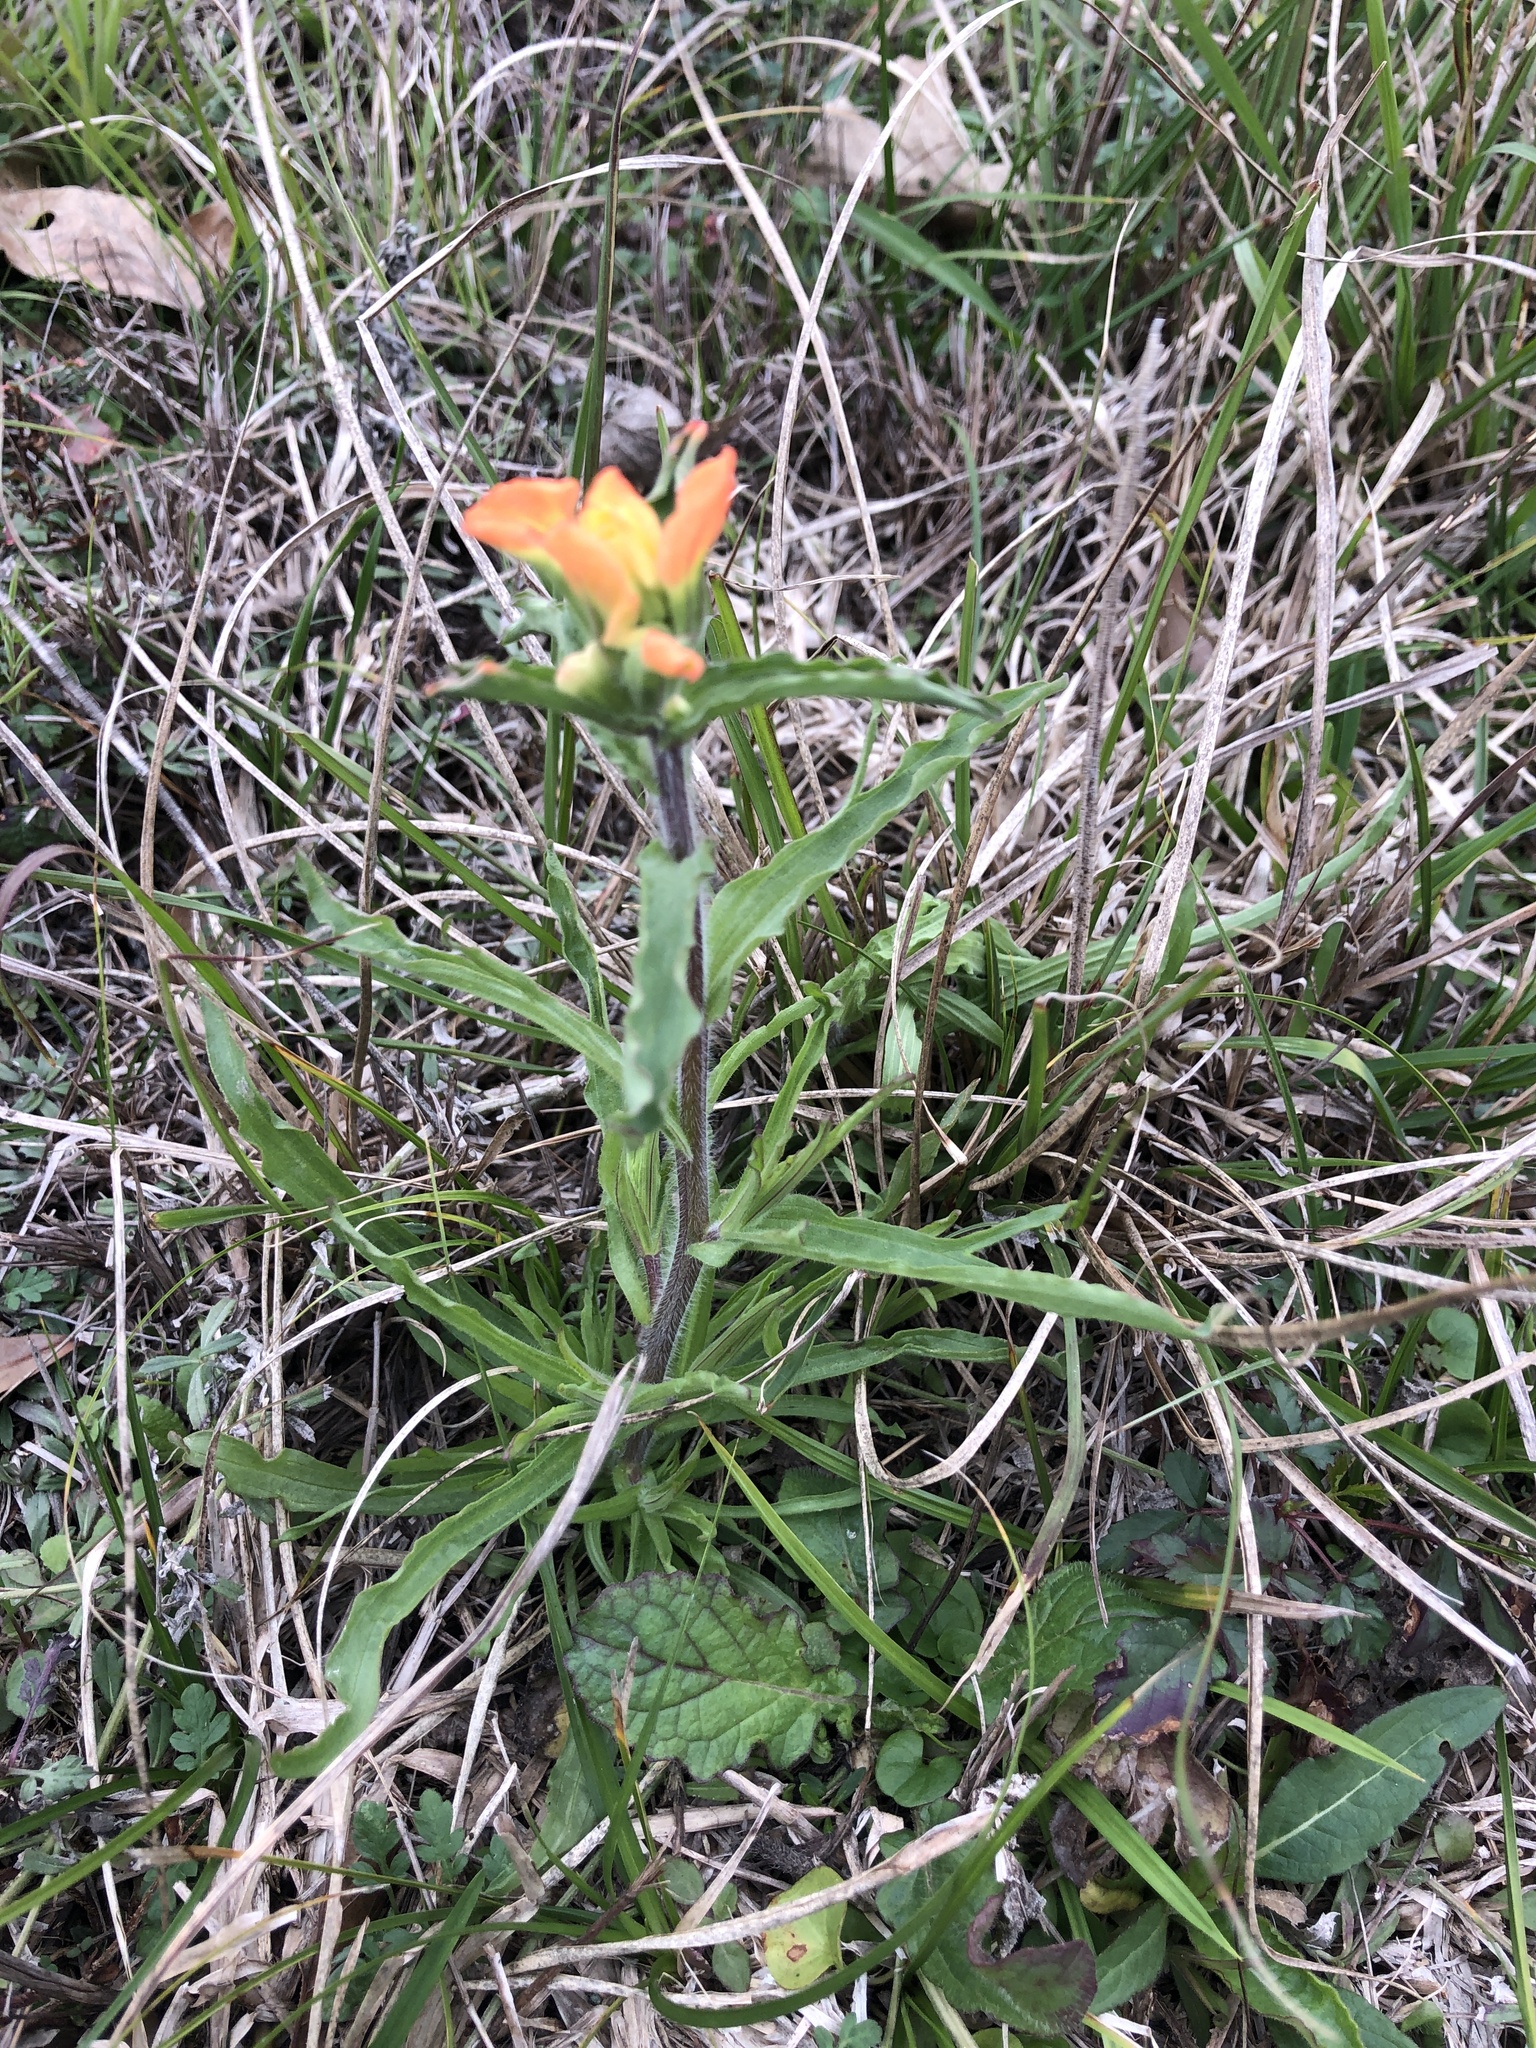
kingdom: Plantae
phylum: Tracheophyta
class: Magnoliopsida
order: Lamiales
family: Orobanchaceae
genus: Castilleja
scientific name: Castilleja indivisa
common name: Texas paintbrush
